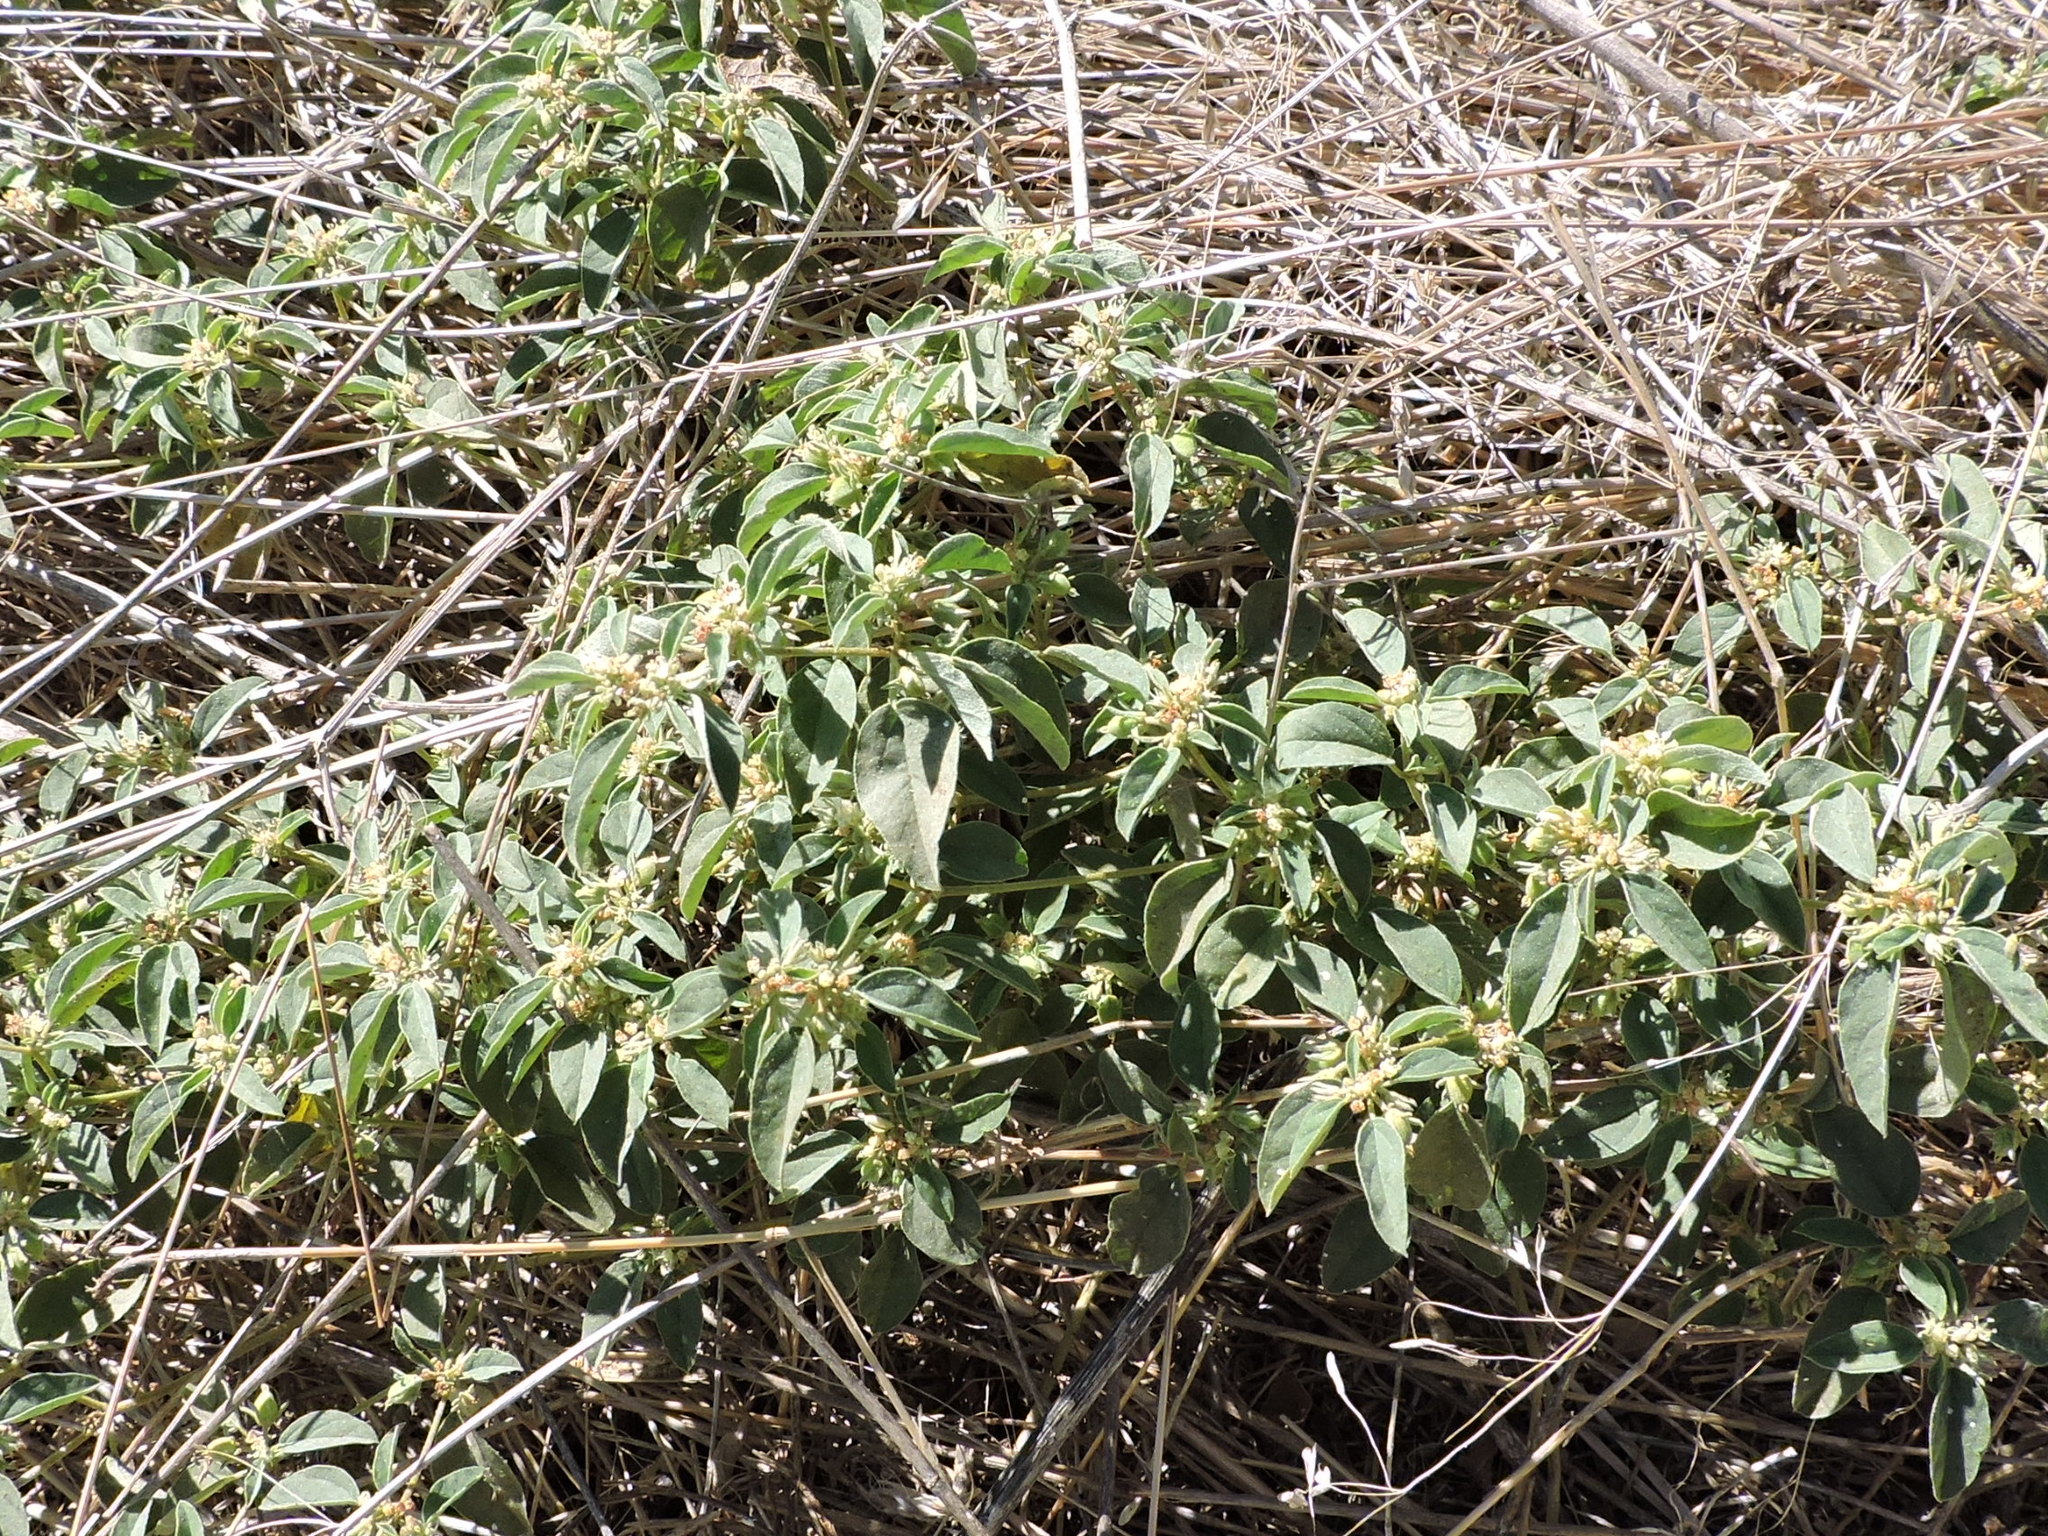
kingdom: Plantae
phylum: Tracheophyta
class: Magnoliopsida
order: Malpighiales
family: Euphorbiaceae
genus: Croton
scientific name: Croton monanthogynus
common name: One-seed croton
